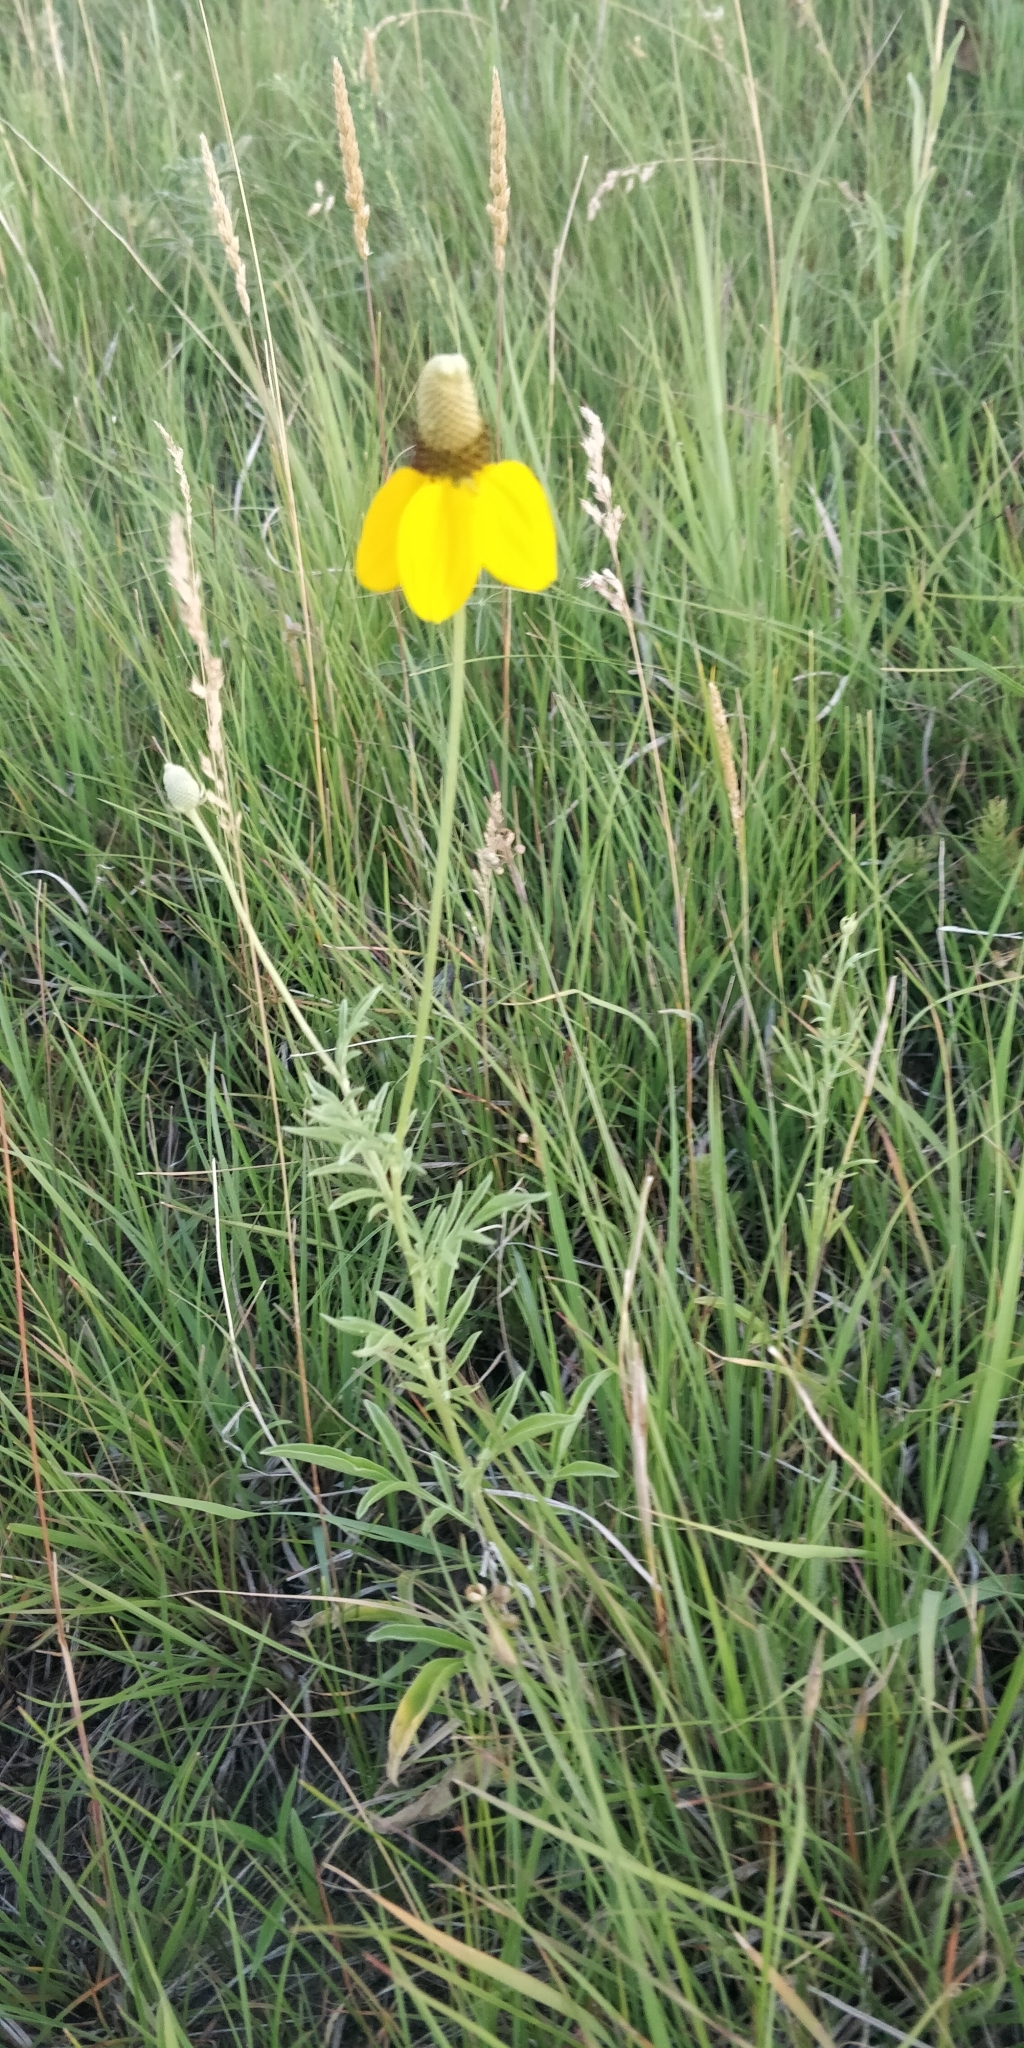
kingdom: Plantae
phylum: Tracheophyta
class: Magnoliopsida
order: Asterales
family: Asteraceae
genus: Ratibida
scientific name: Ratibida columnifera
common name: Prairie coneflower
